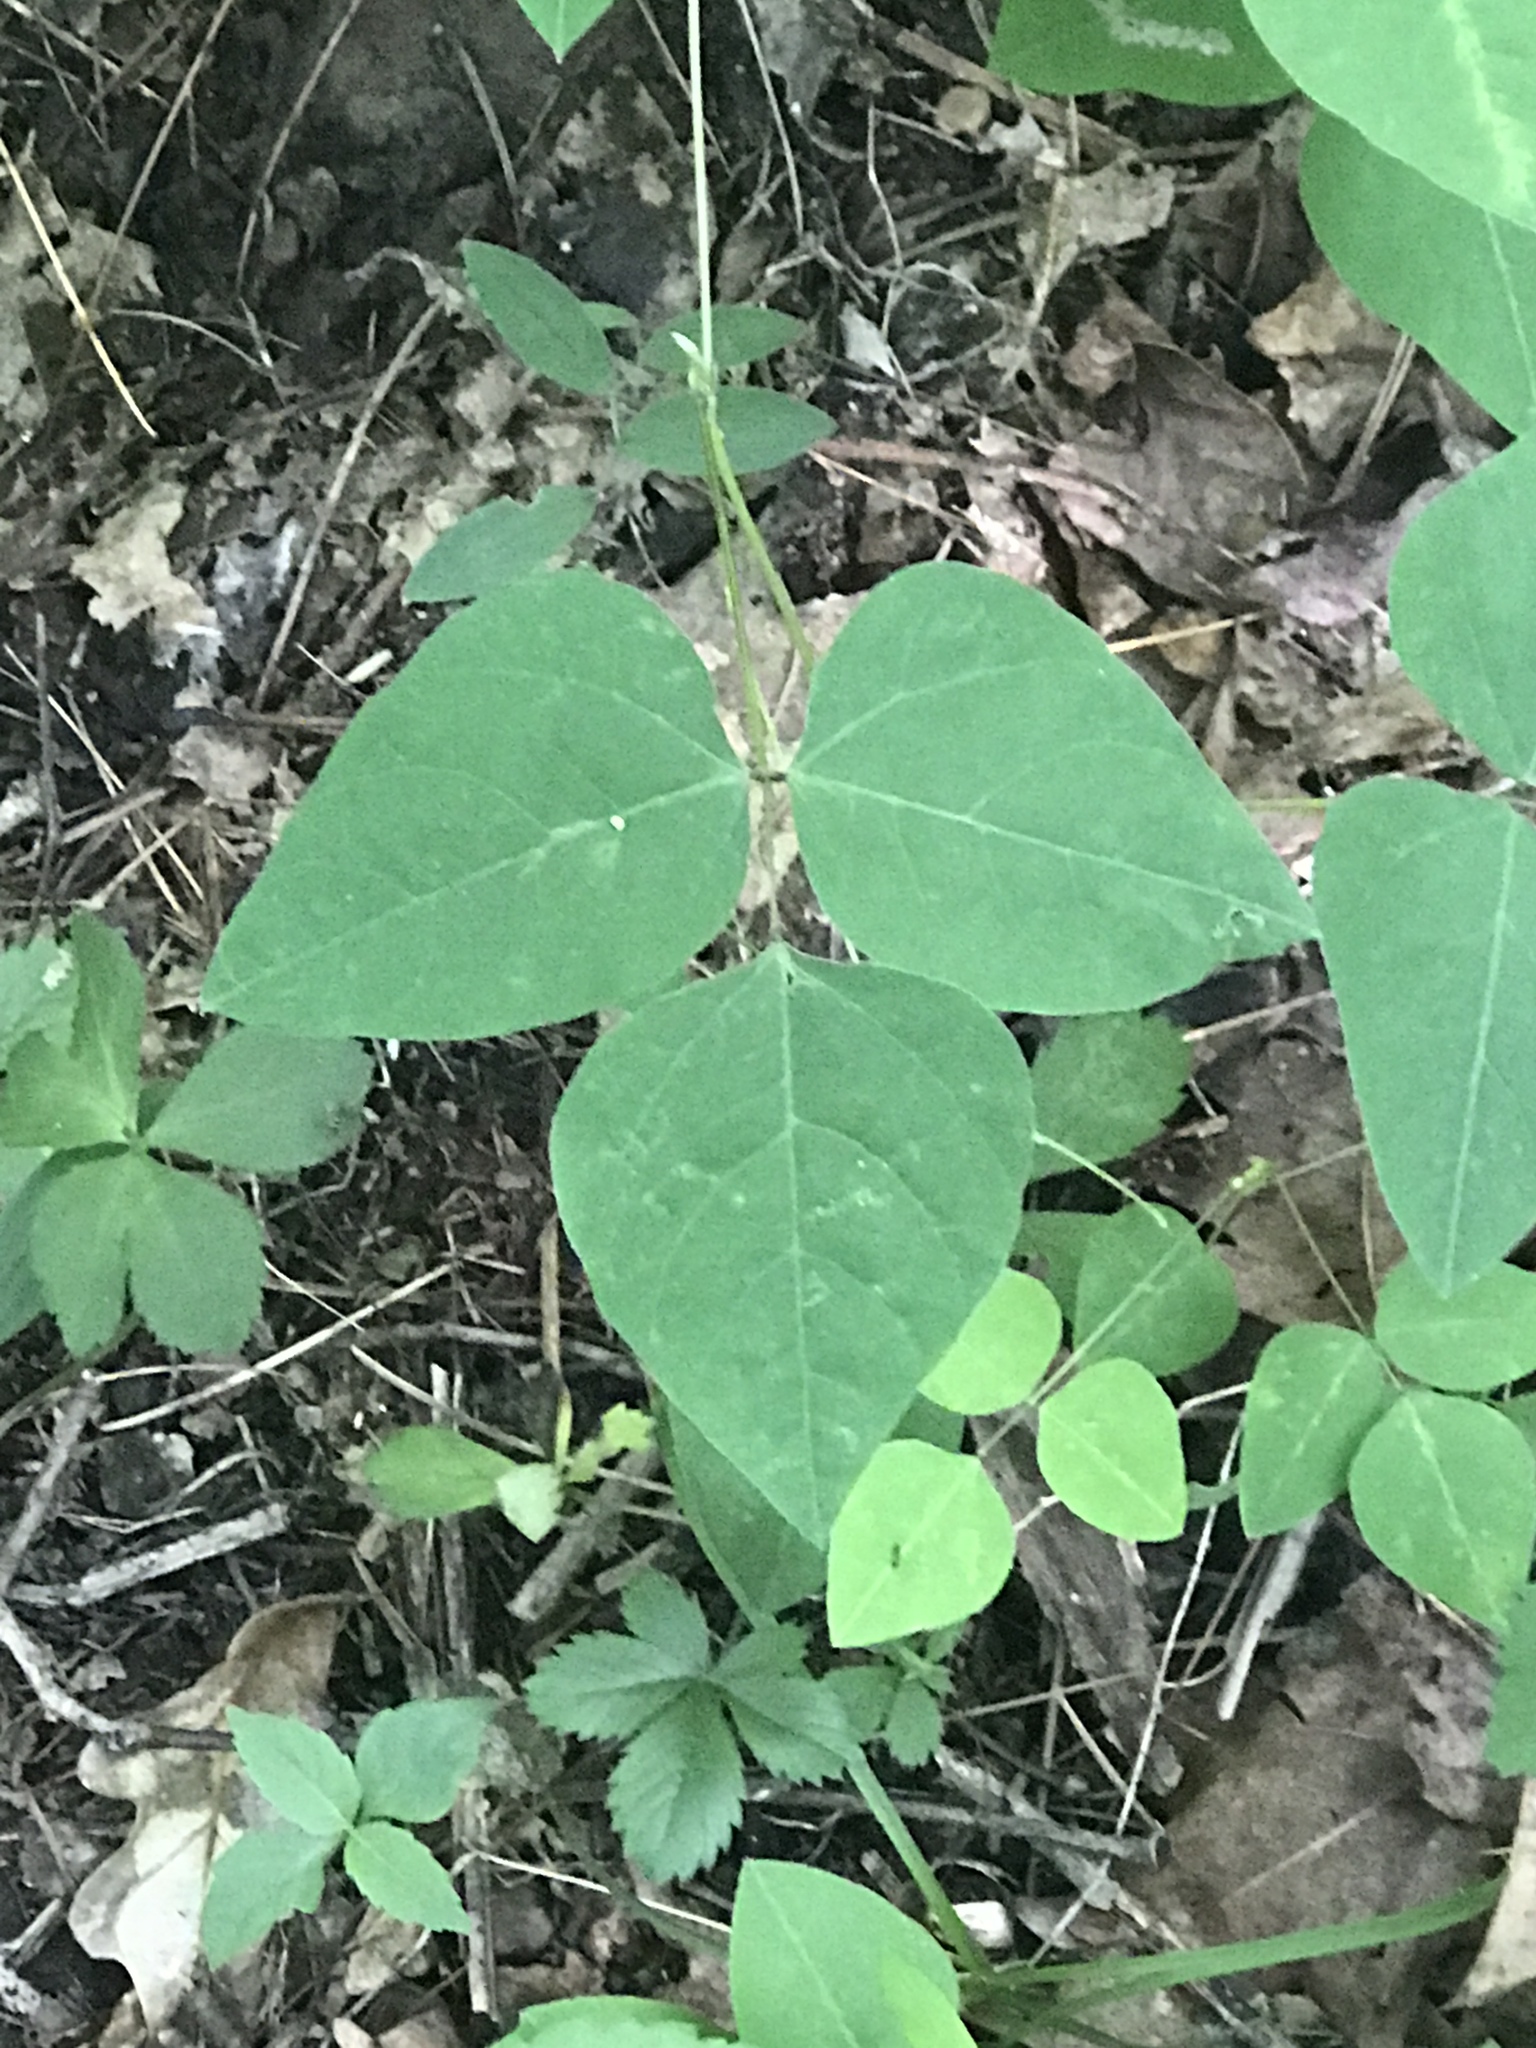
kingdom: Plantae
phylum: Tracheophyta
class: Magnoliopsida
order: Fabales
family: Fabaceae
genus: Amphicarpaea
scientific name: Amphicarpaea bracteata
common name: American hog peanut
